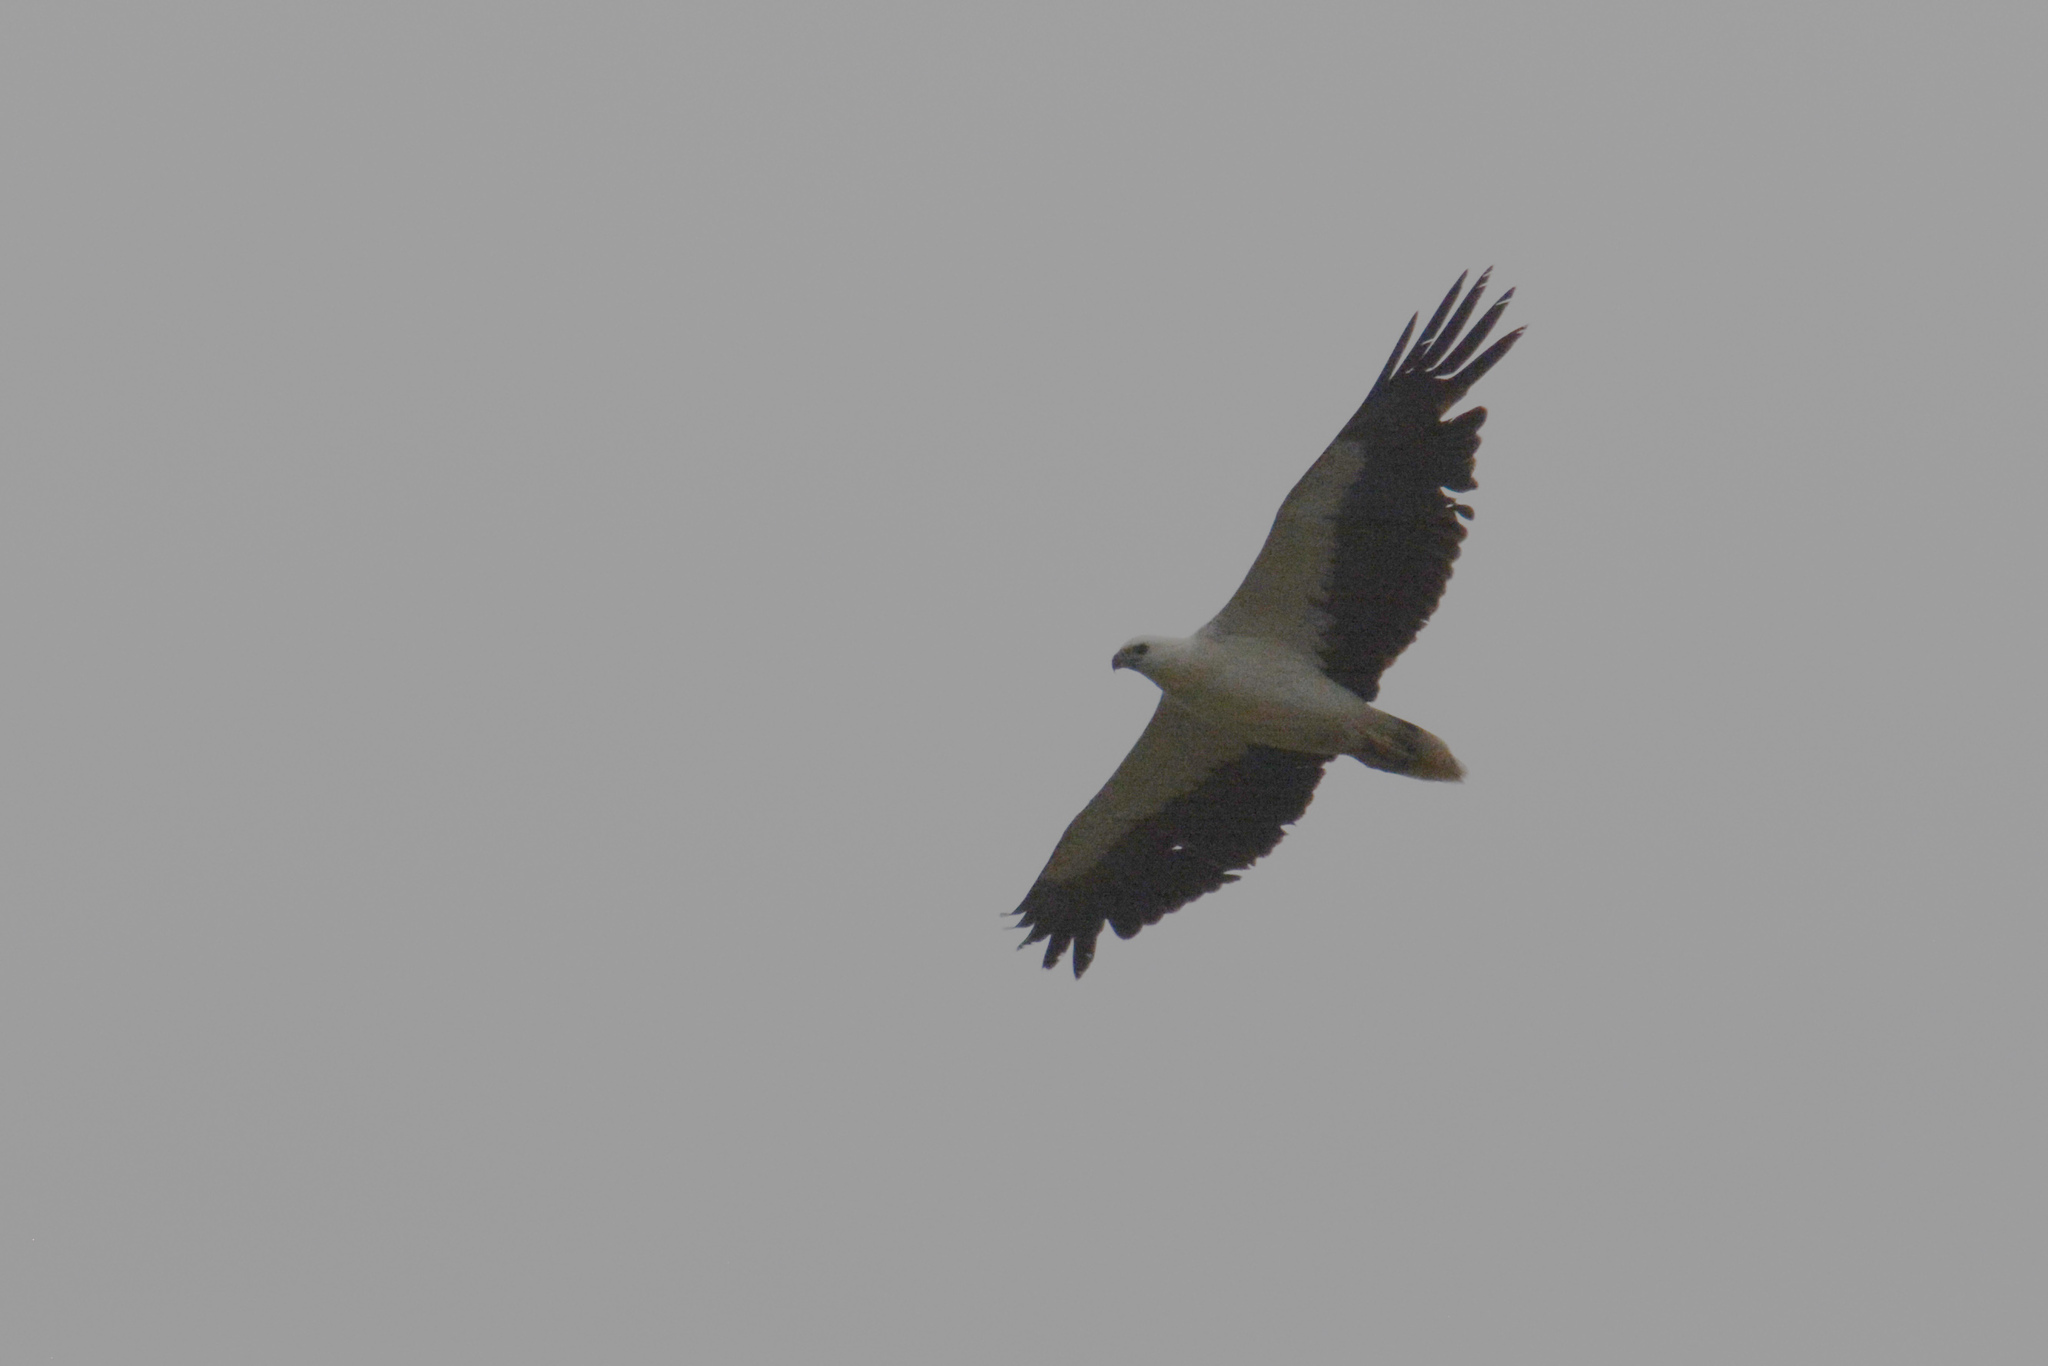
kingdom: Animalia
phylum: Chordata
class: Aves
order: Accipitriformes
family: Accipitridae
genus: Haliaeetus
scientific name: Haliaeetus leucogaster
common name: White-bellied sea eagle
